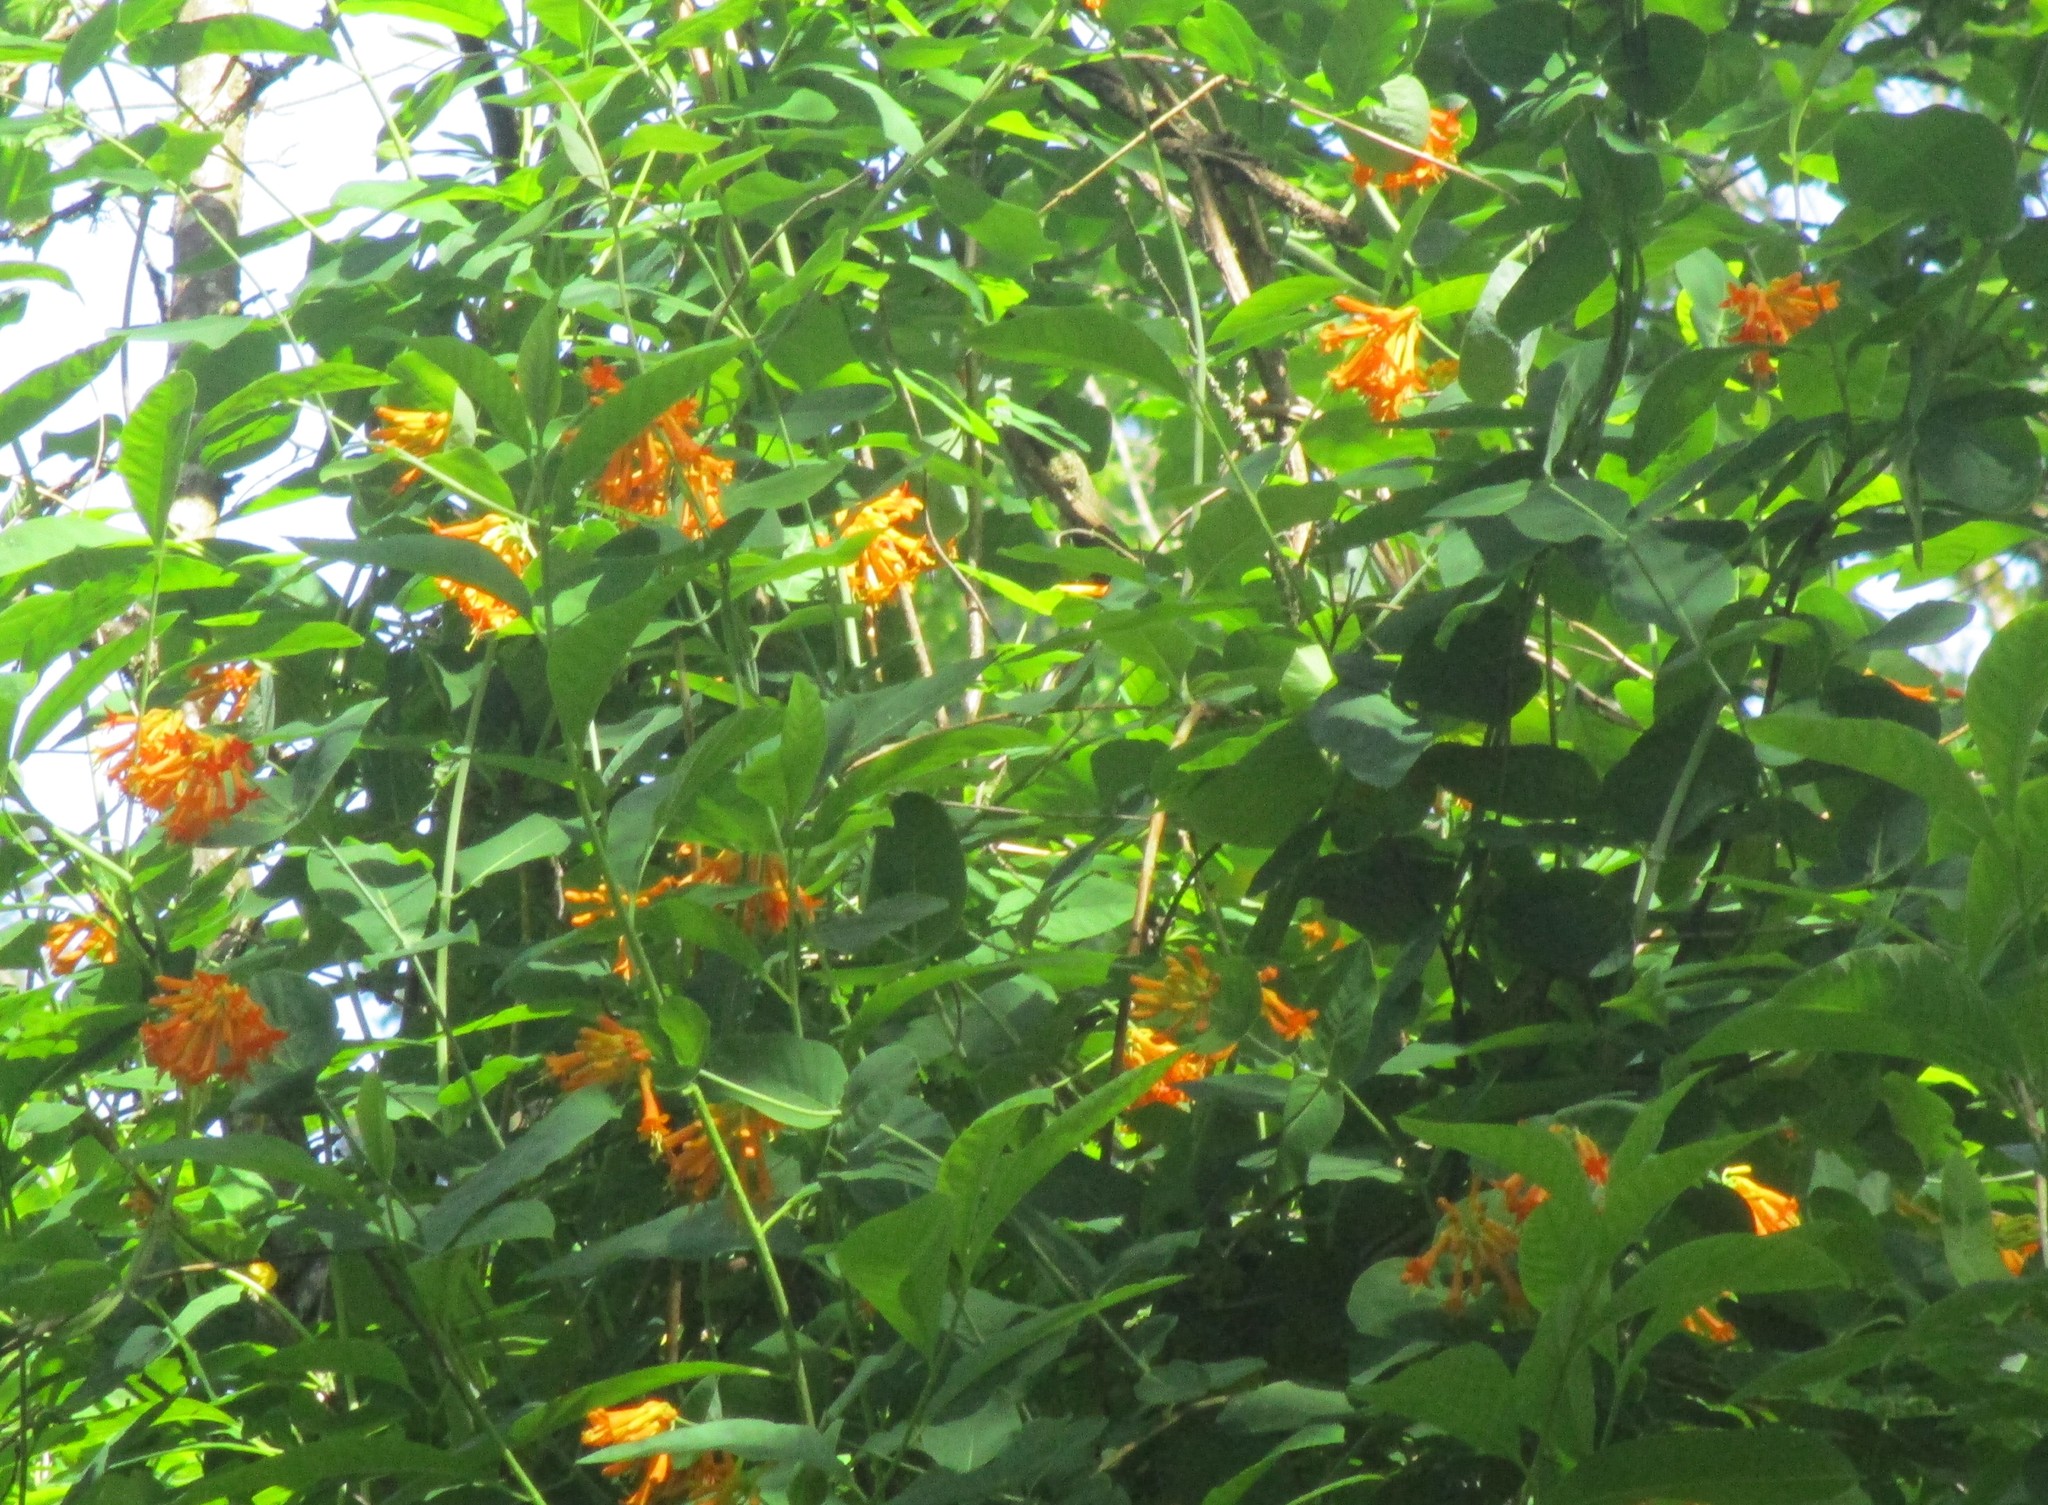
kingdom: Plantae
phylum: Tracheophyta
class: Magnoliopsida
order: Dipsacales
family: Caprifoliaceae
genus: Lonicera
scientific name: Lonicera ciliosa
